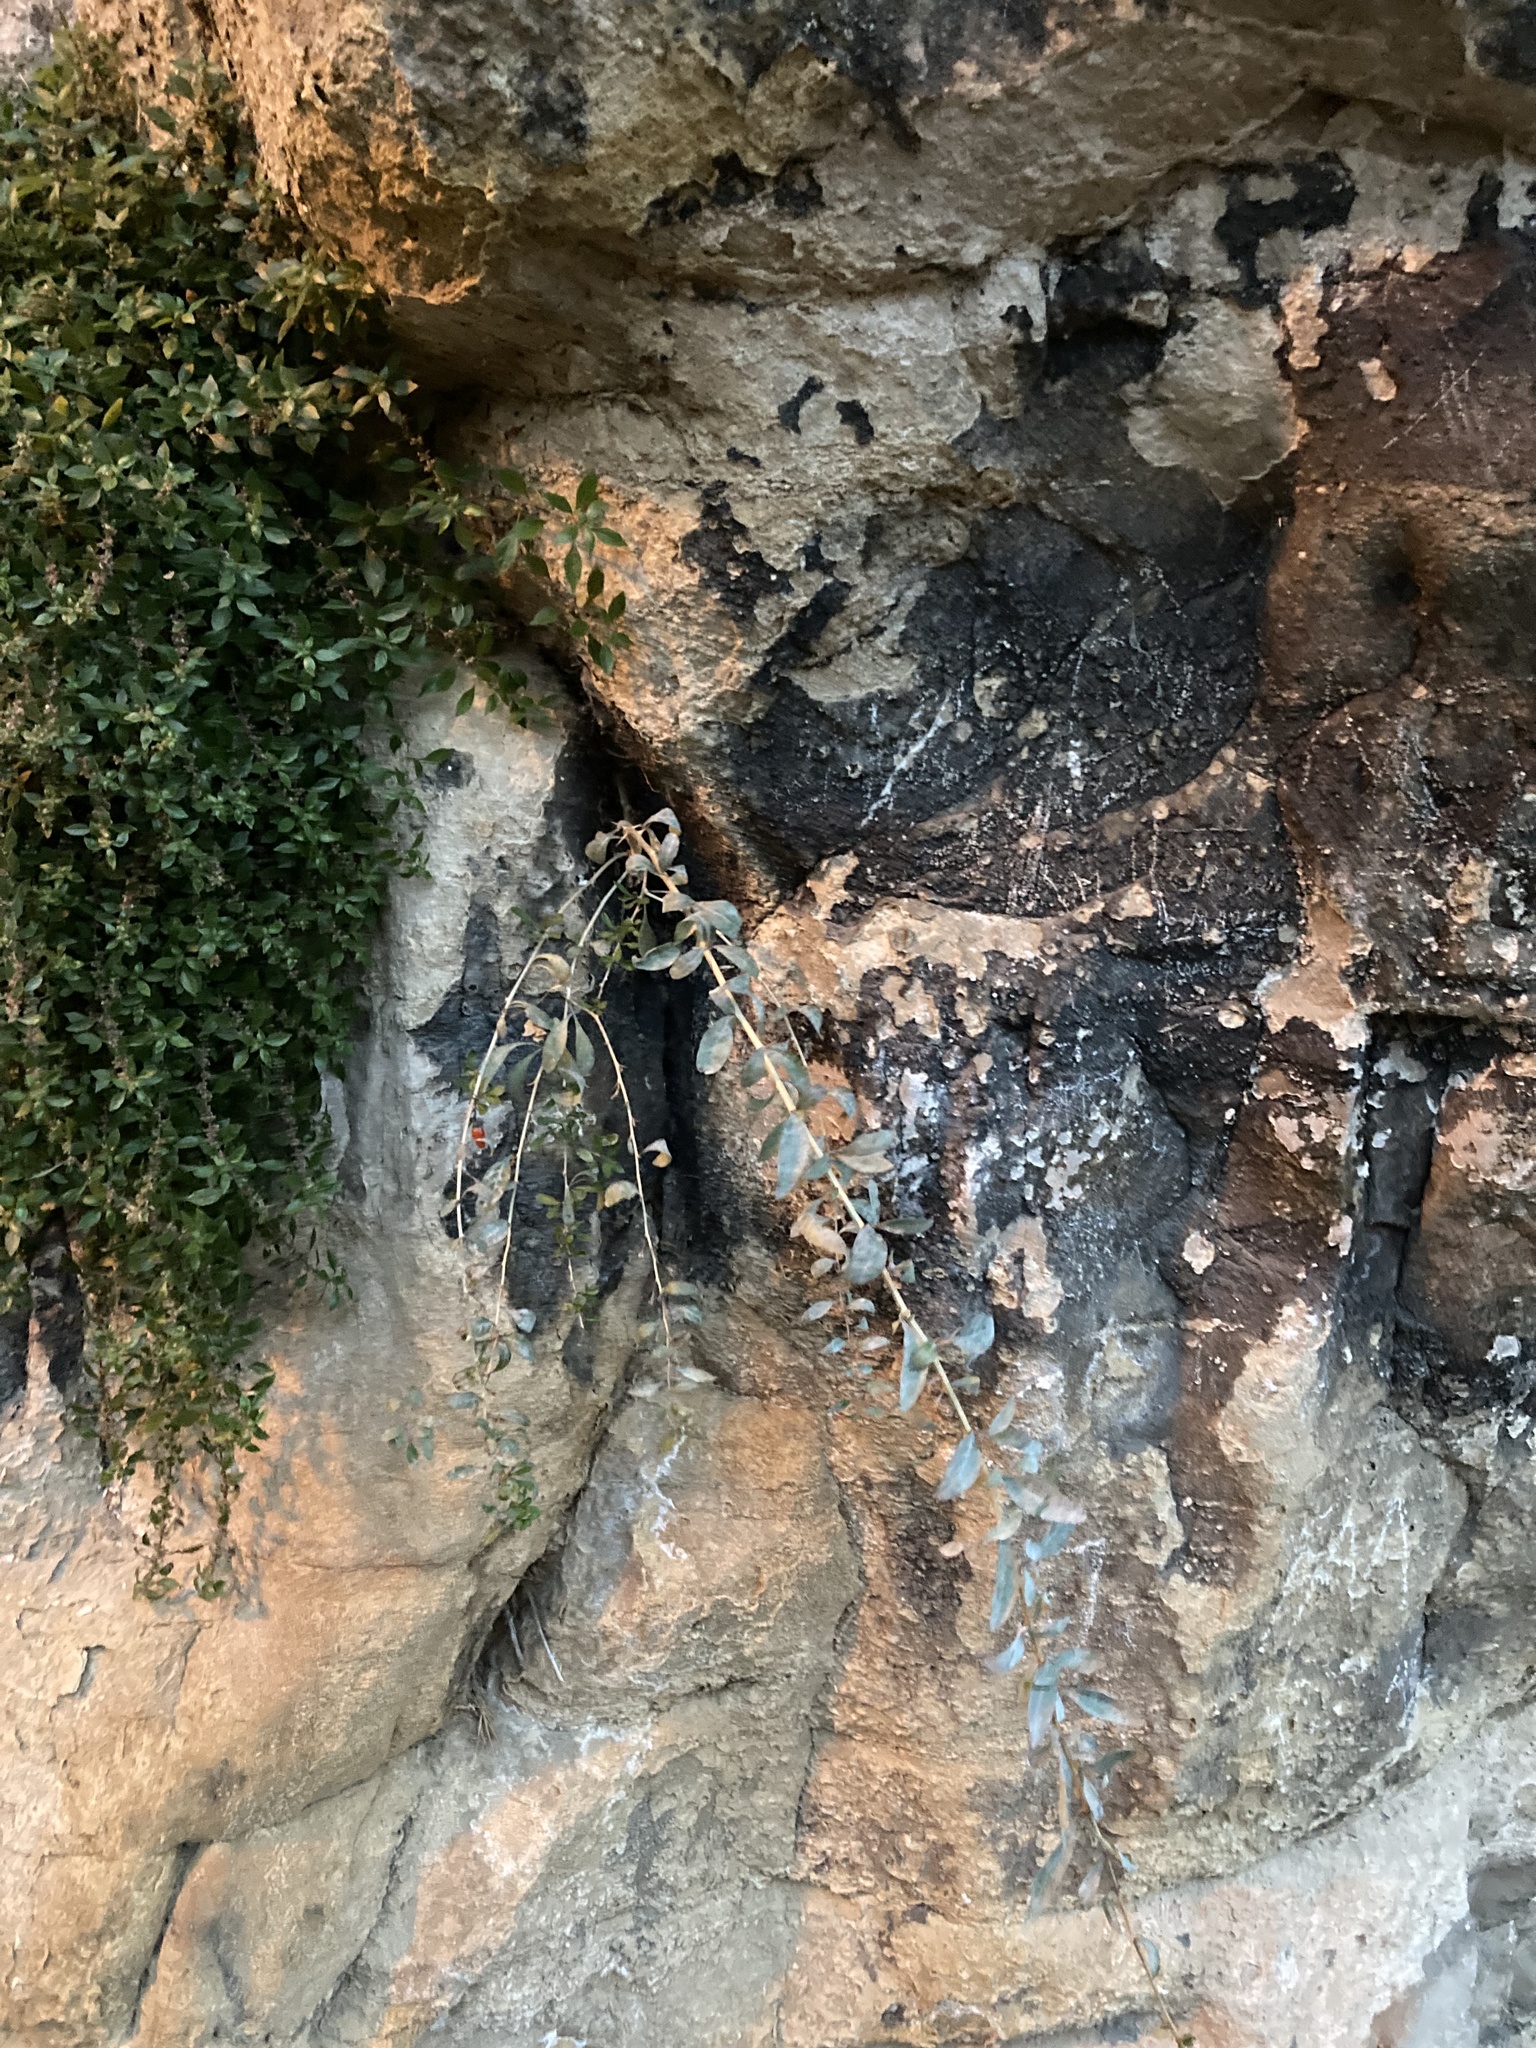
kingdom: Plantae
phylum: Tracheophyta
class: Magnoliopsida
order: Solanales
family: Solanaceae
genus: Lycium
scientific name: Lycium barbarum
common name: Duke of argyll's teaplant
